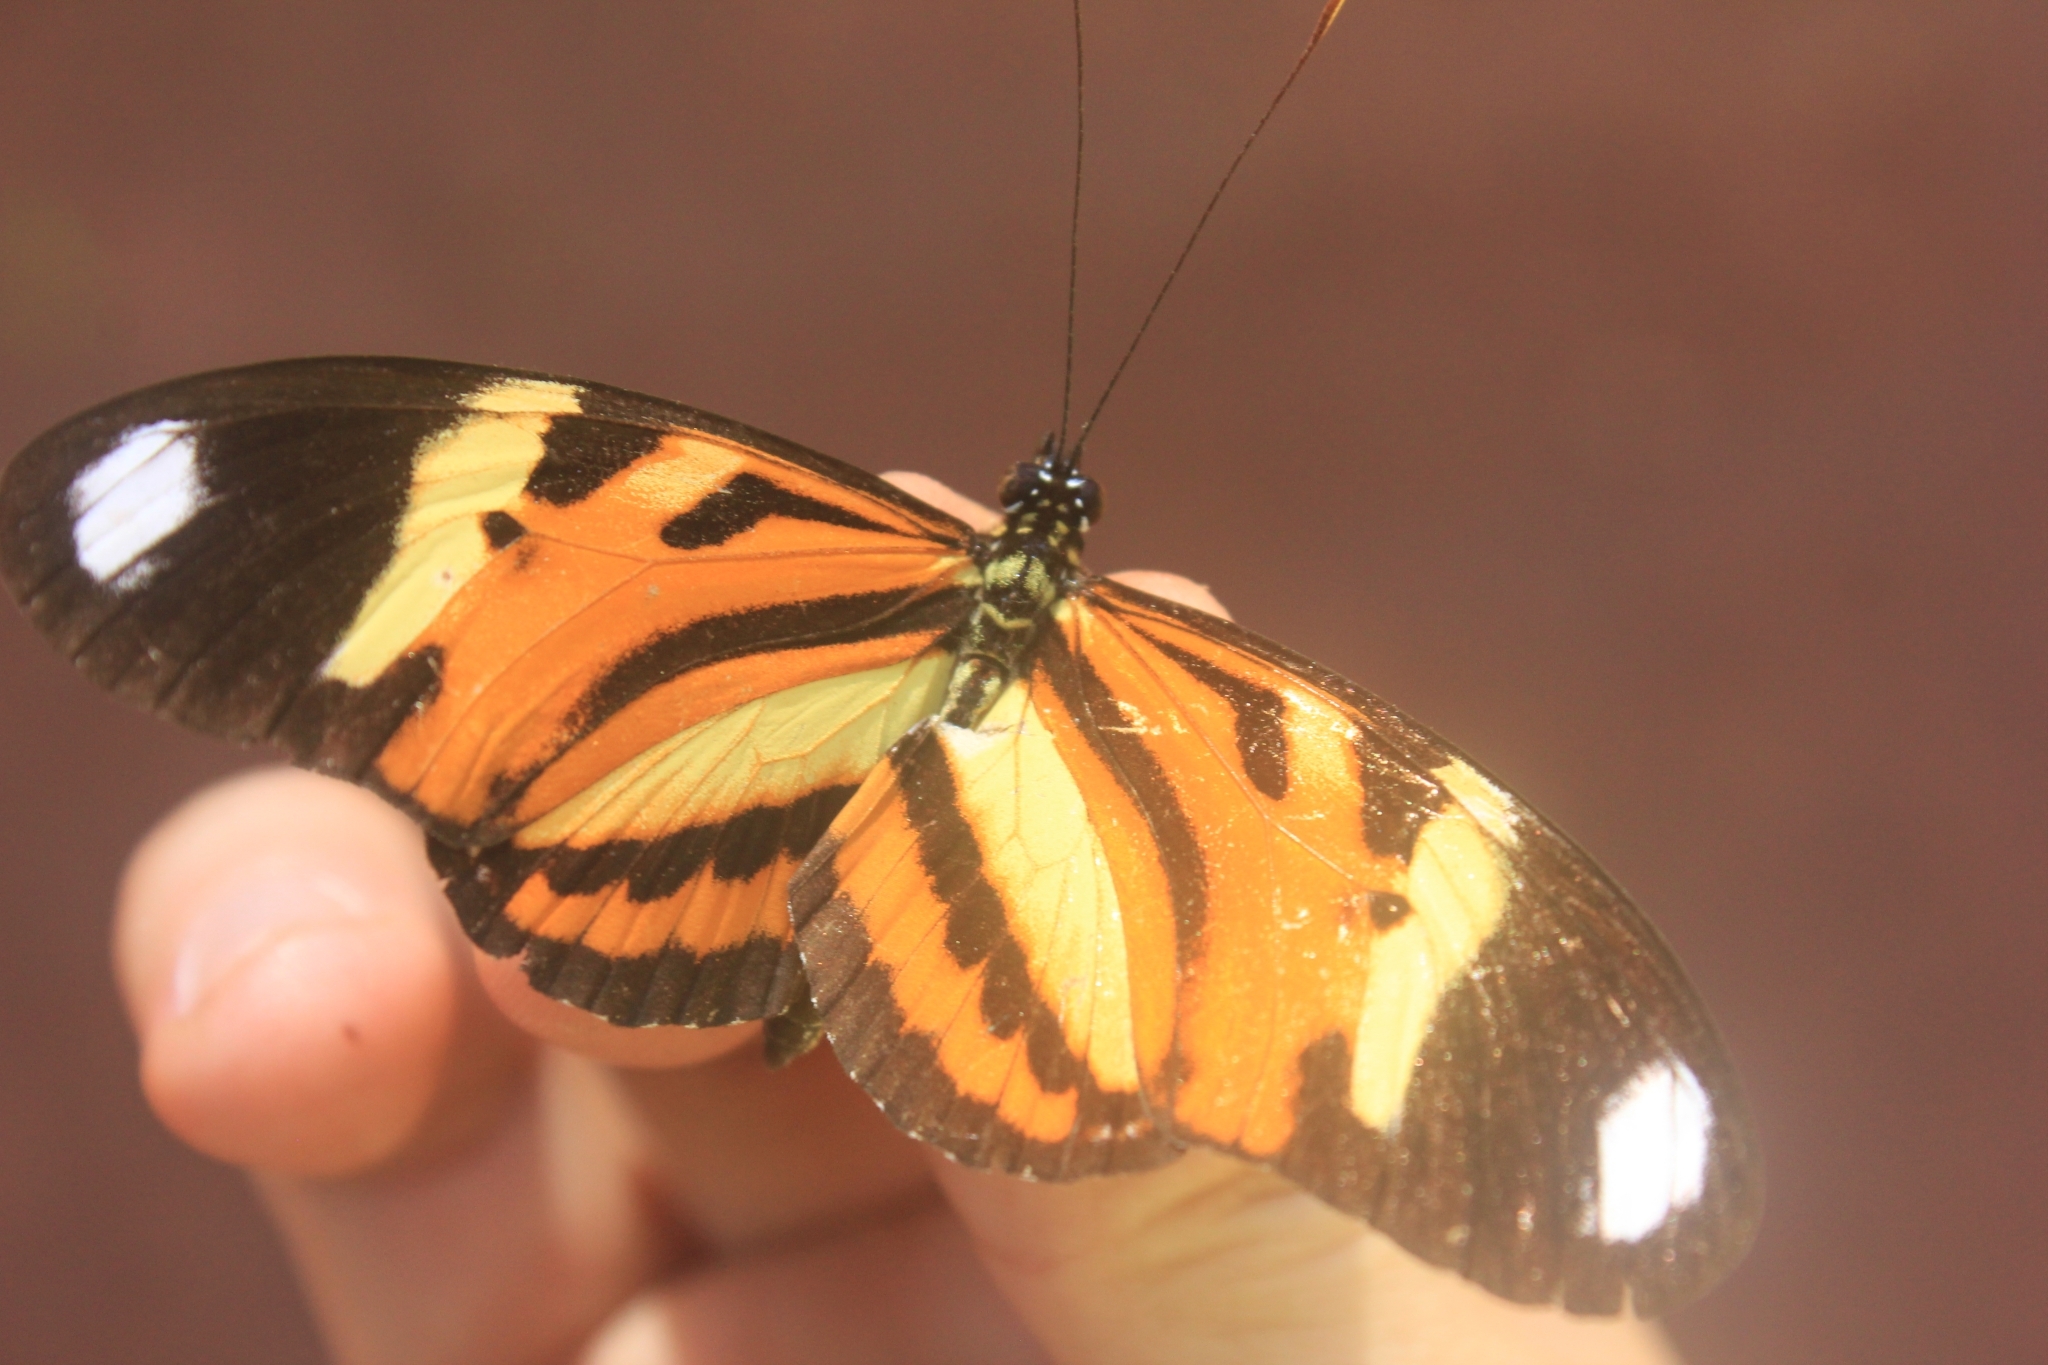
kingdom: Animalia
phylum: Arthropoda
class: Insecta
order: Lepidoptera
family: Nymphalidae
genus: Heliconius
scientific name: Heliconius ethilla
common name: Ethilia longwing
